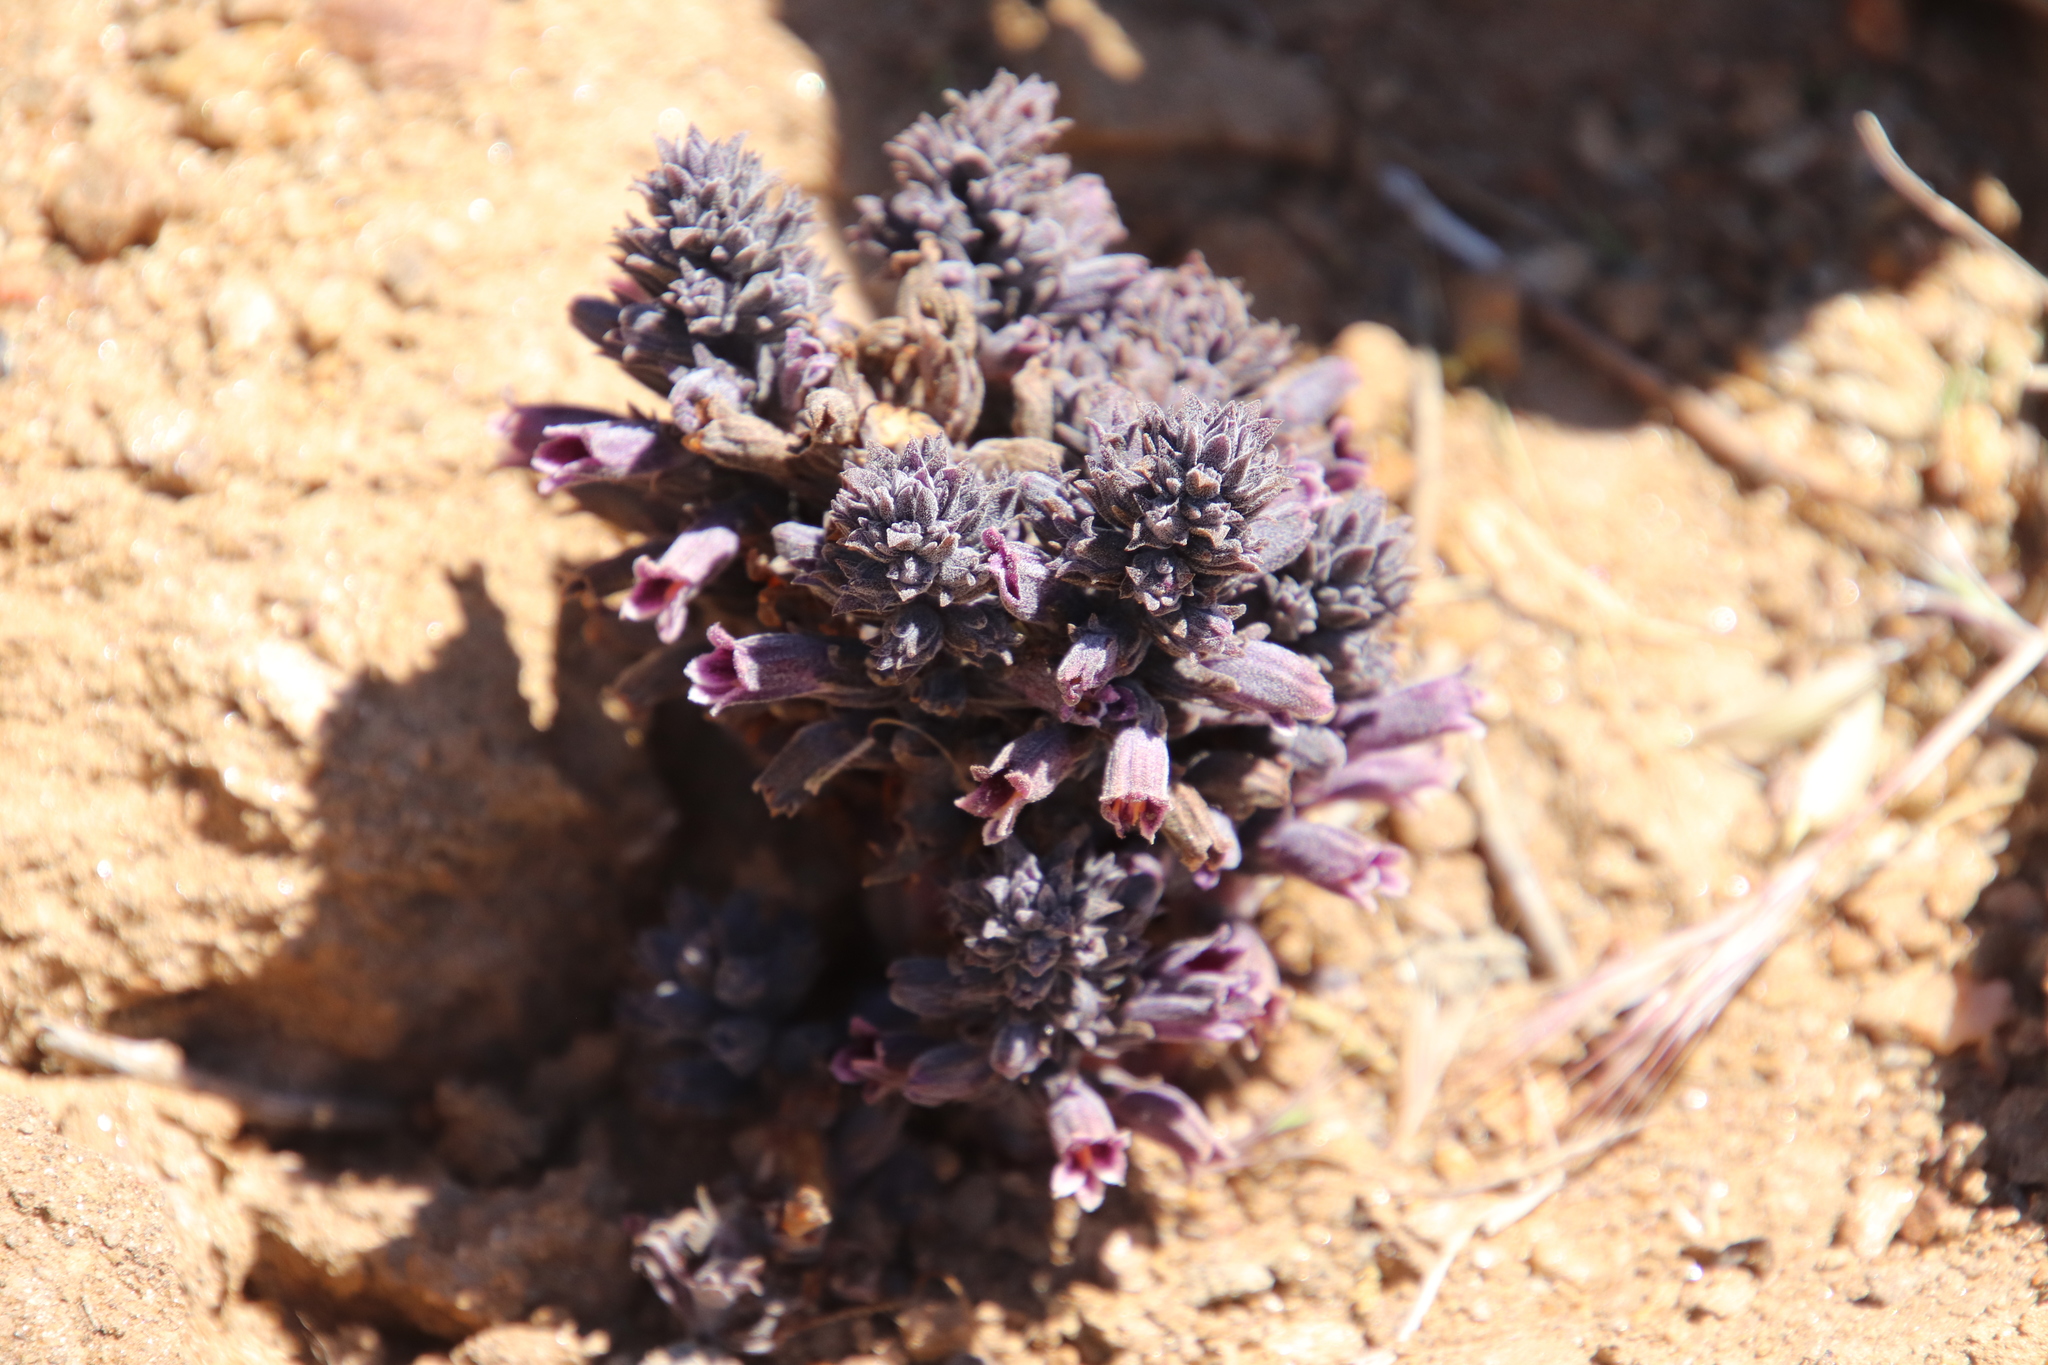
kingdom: Plantae
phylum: Tracheophyta
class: Magnoliopsida
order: Lamiales
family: Orobanchaceae
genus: Aphyllon
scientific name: Aphyllon tuberosum
